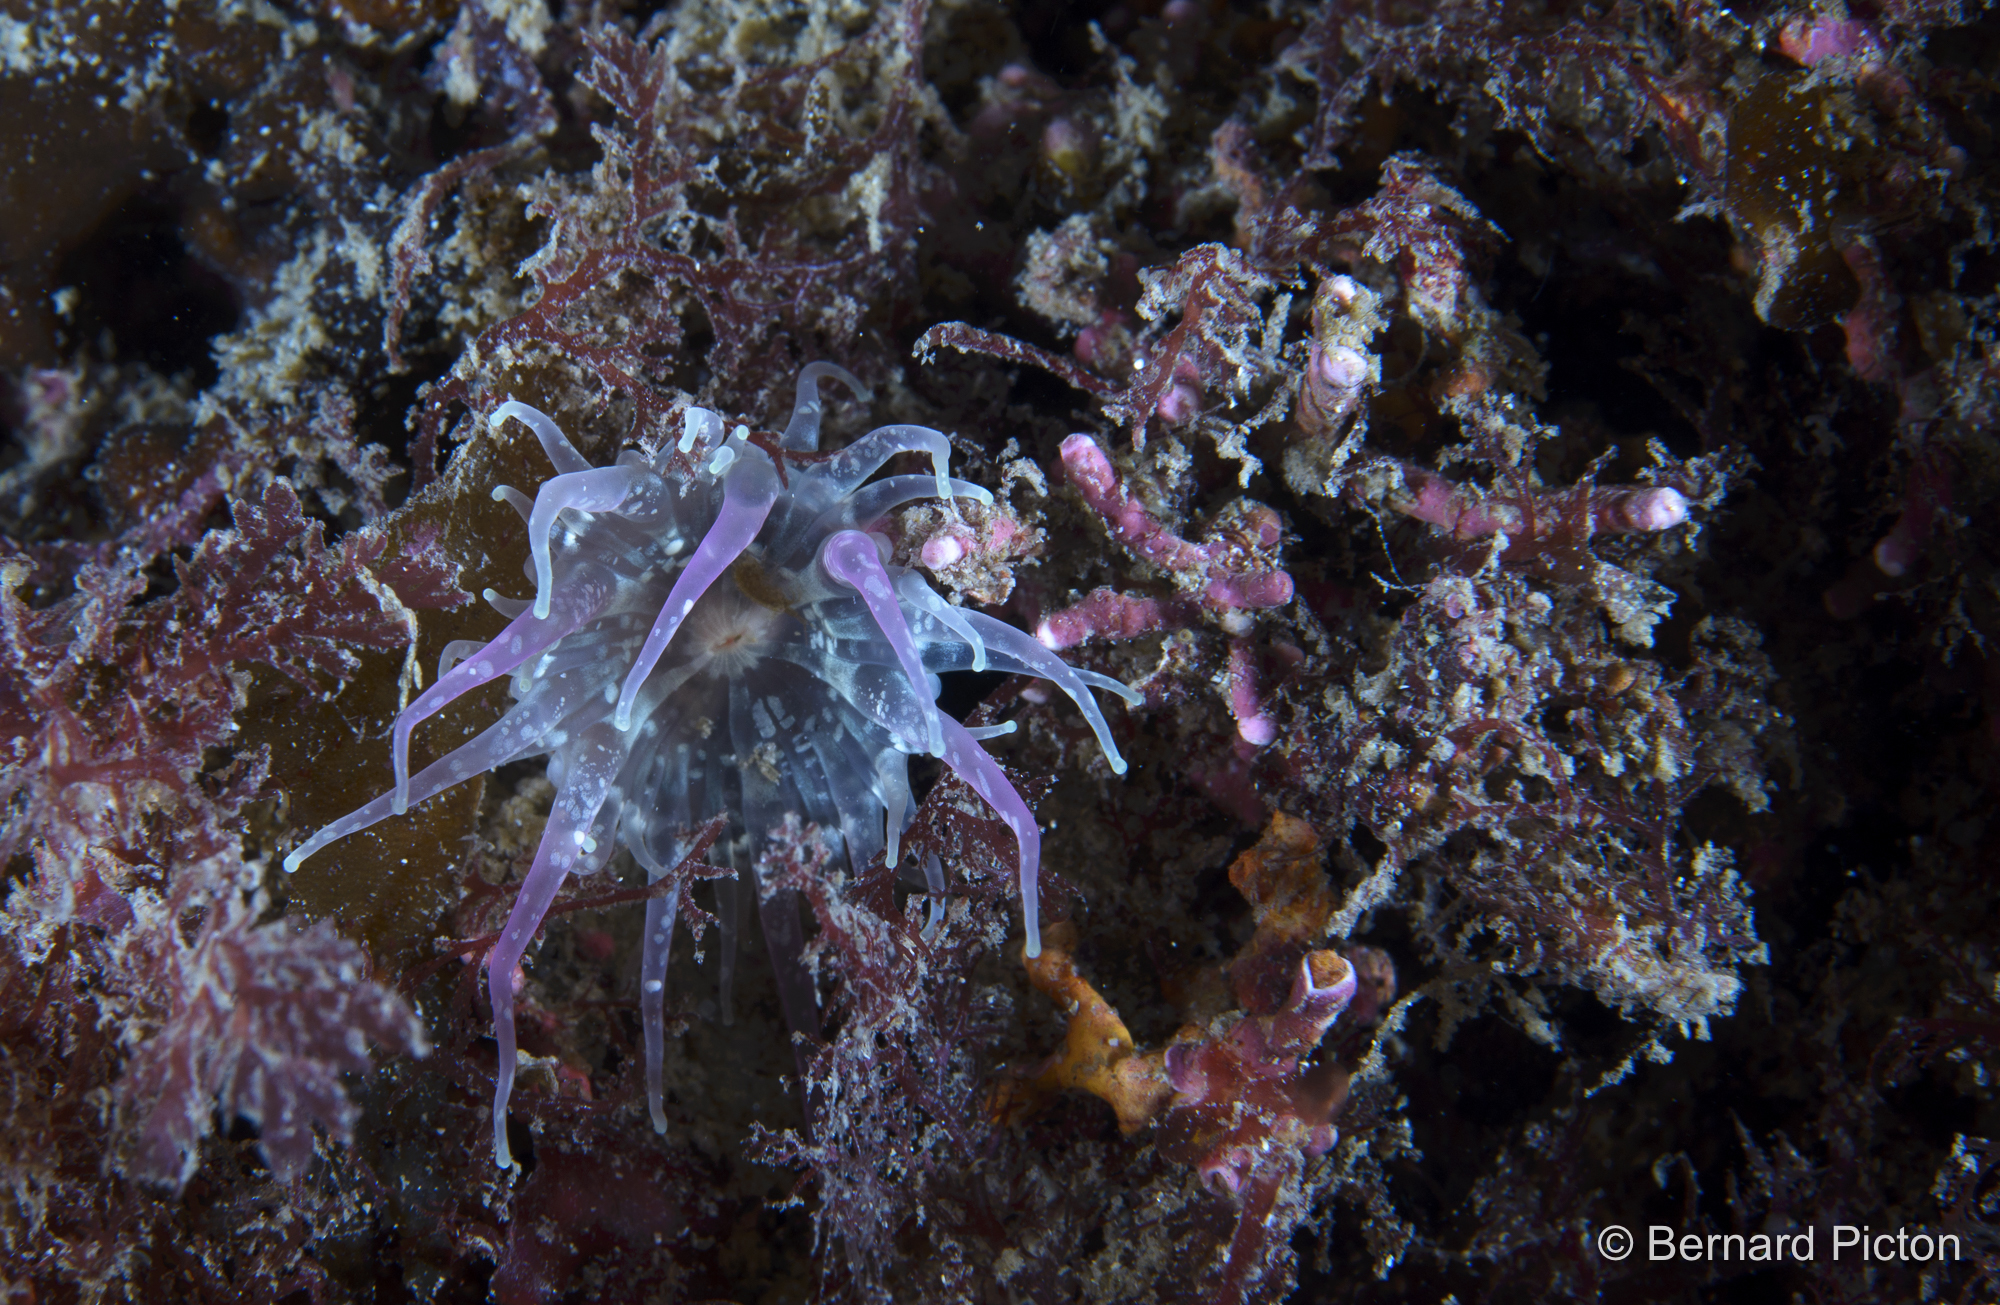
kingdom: Animalia
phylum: Cnidaria
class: Anthozoa
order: Actiniaria
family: Actiniidae
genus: Anthopleura
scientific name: Anthopleura ballii
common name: Red speckled anemone
